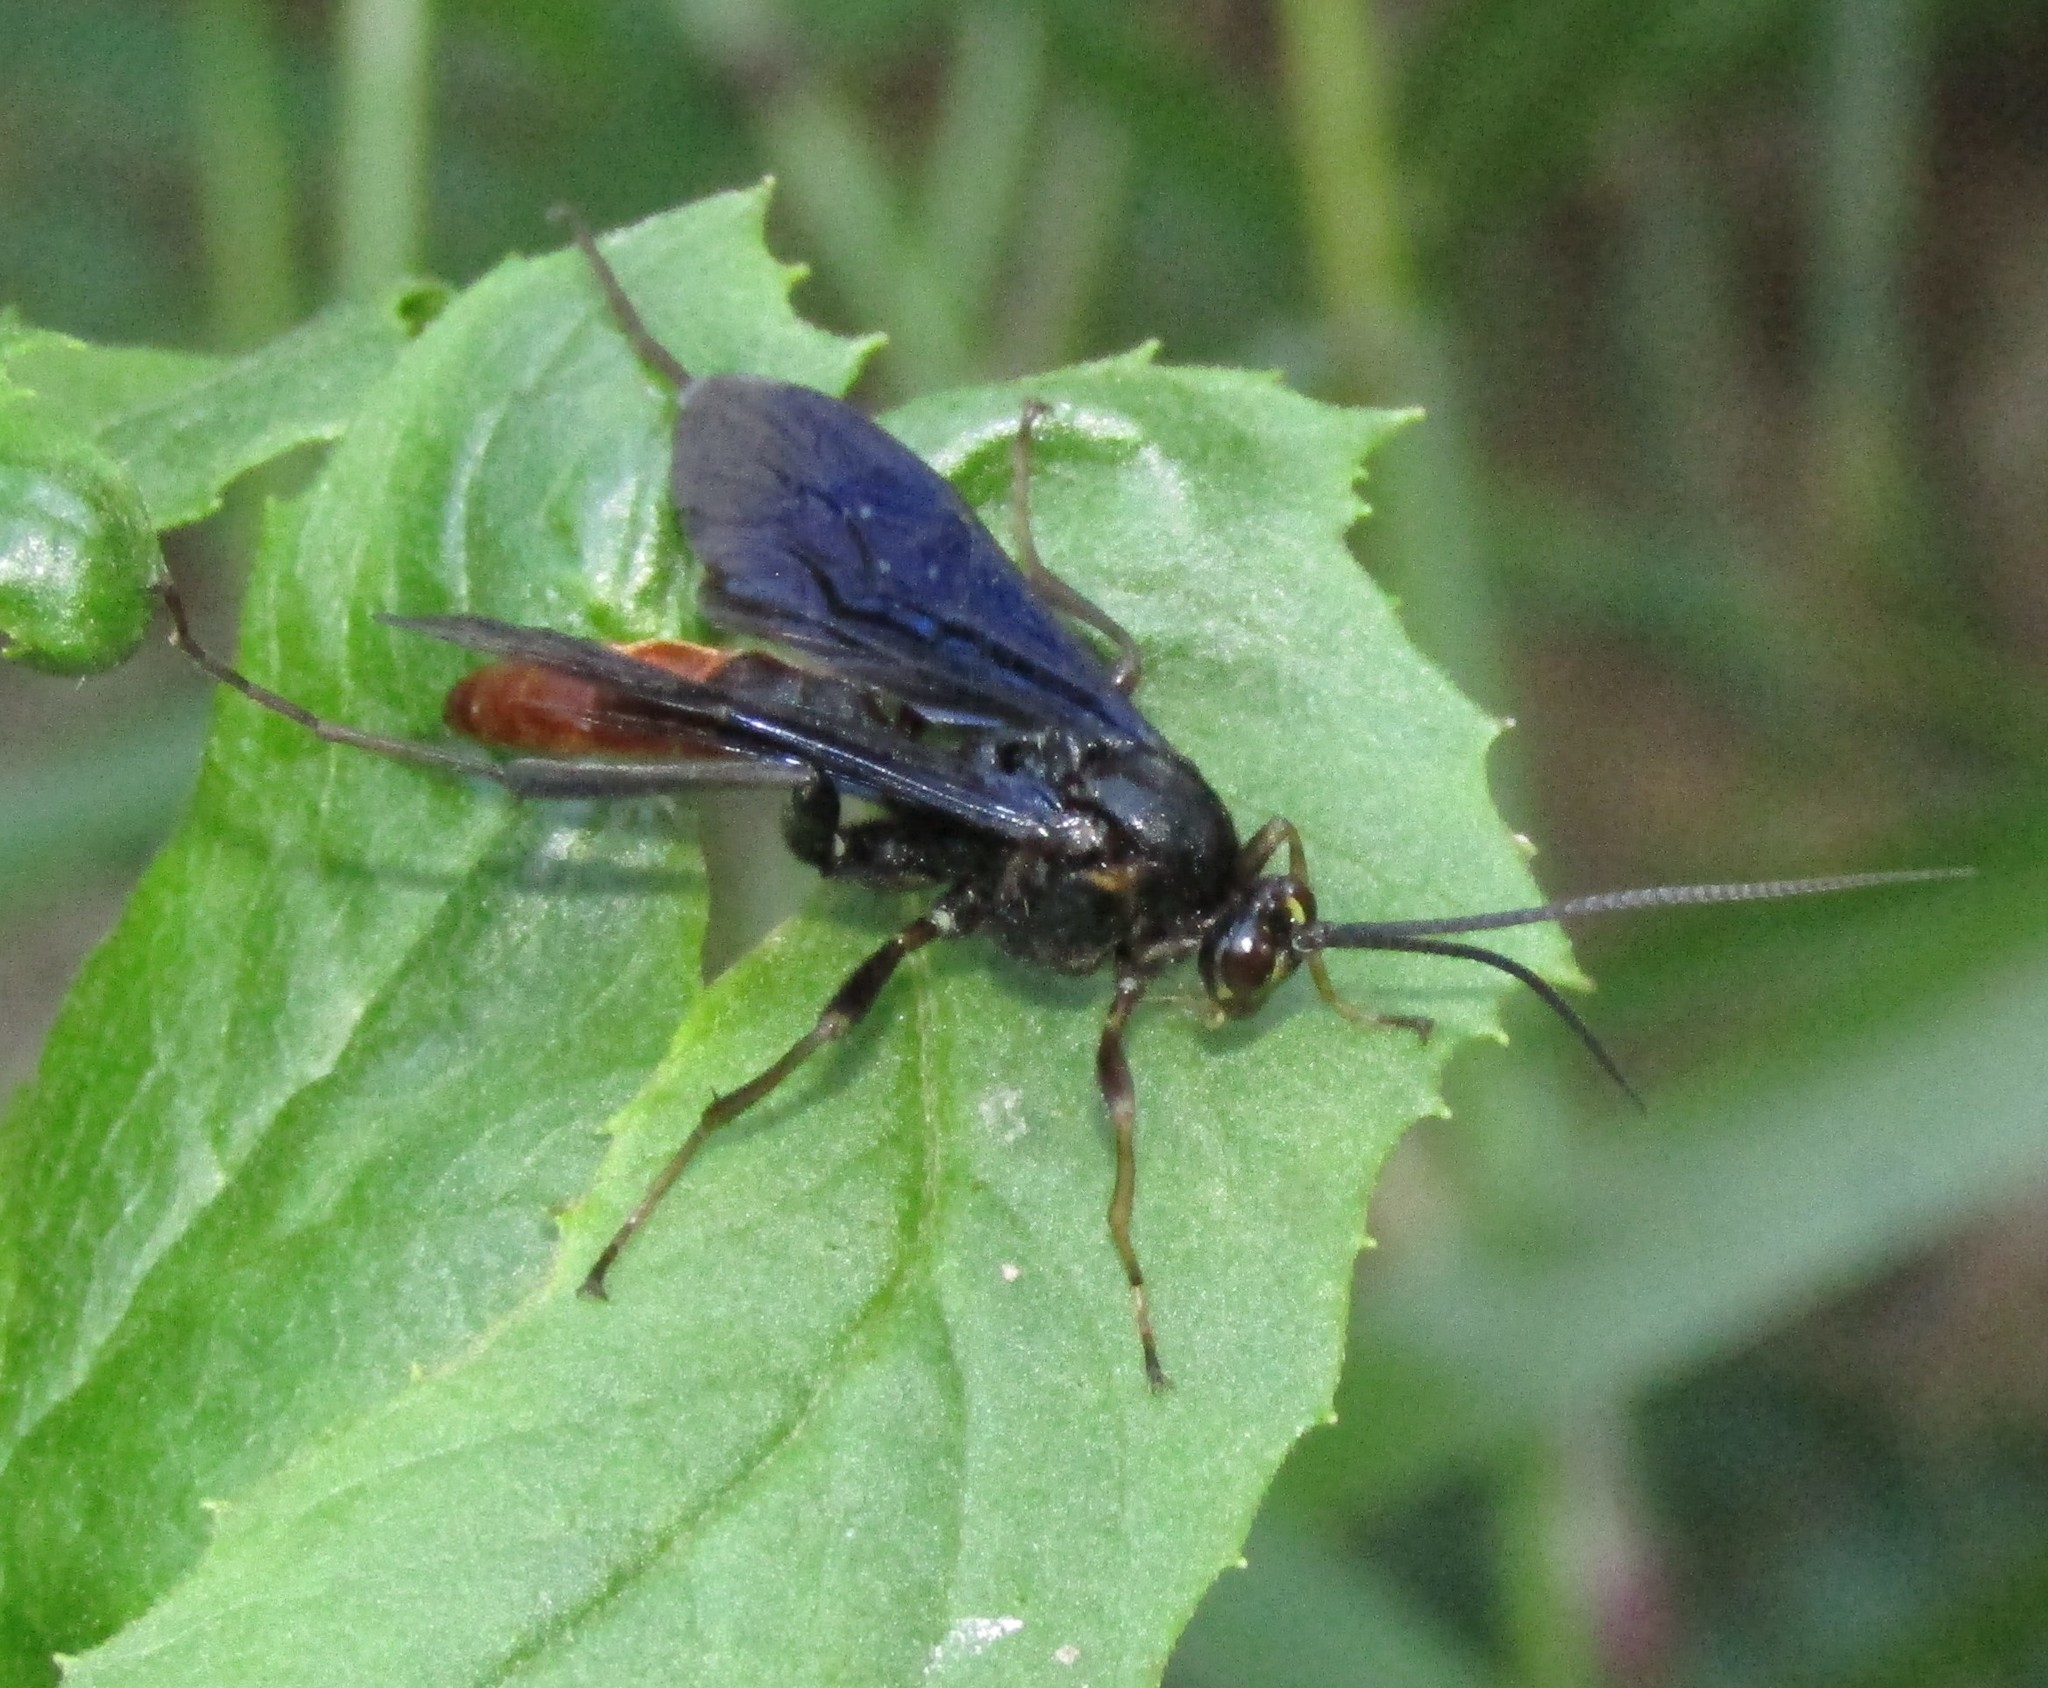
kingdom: Animalia
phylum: Arthropoda
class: Insecta
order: Hymenoptera
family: Ichneumonidae
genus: Saranaca
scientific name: Saranaca apicalis
